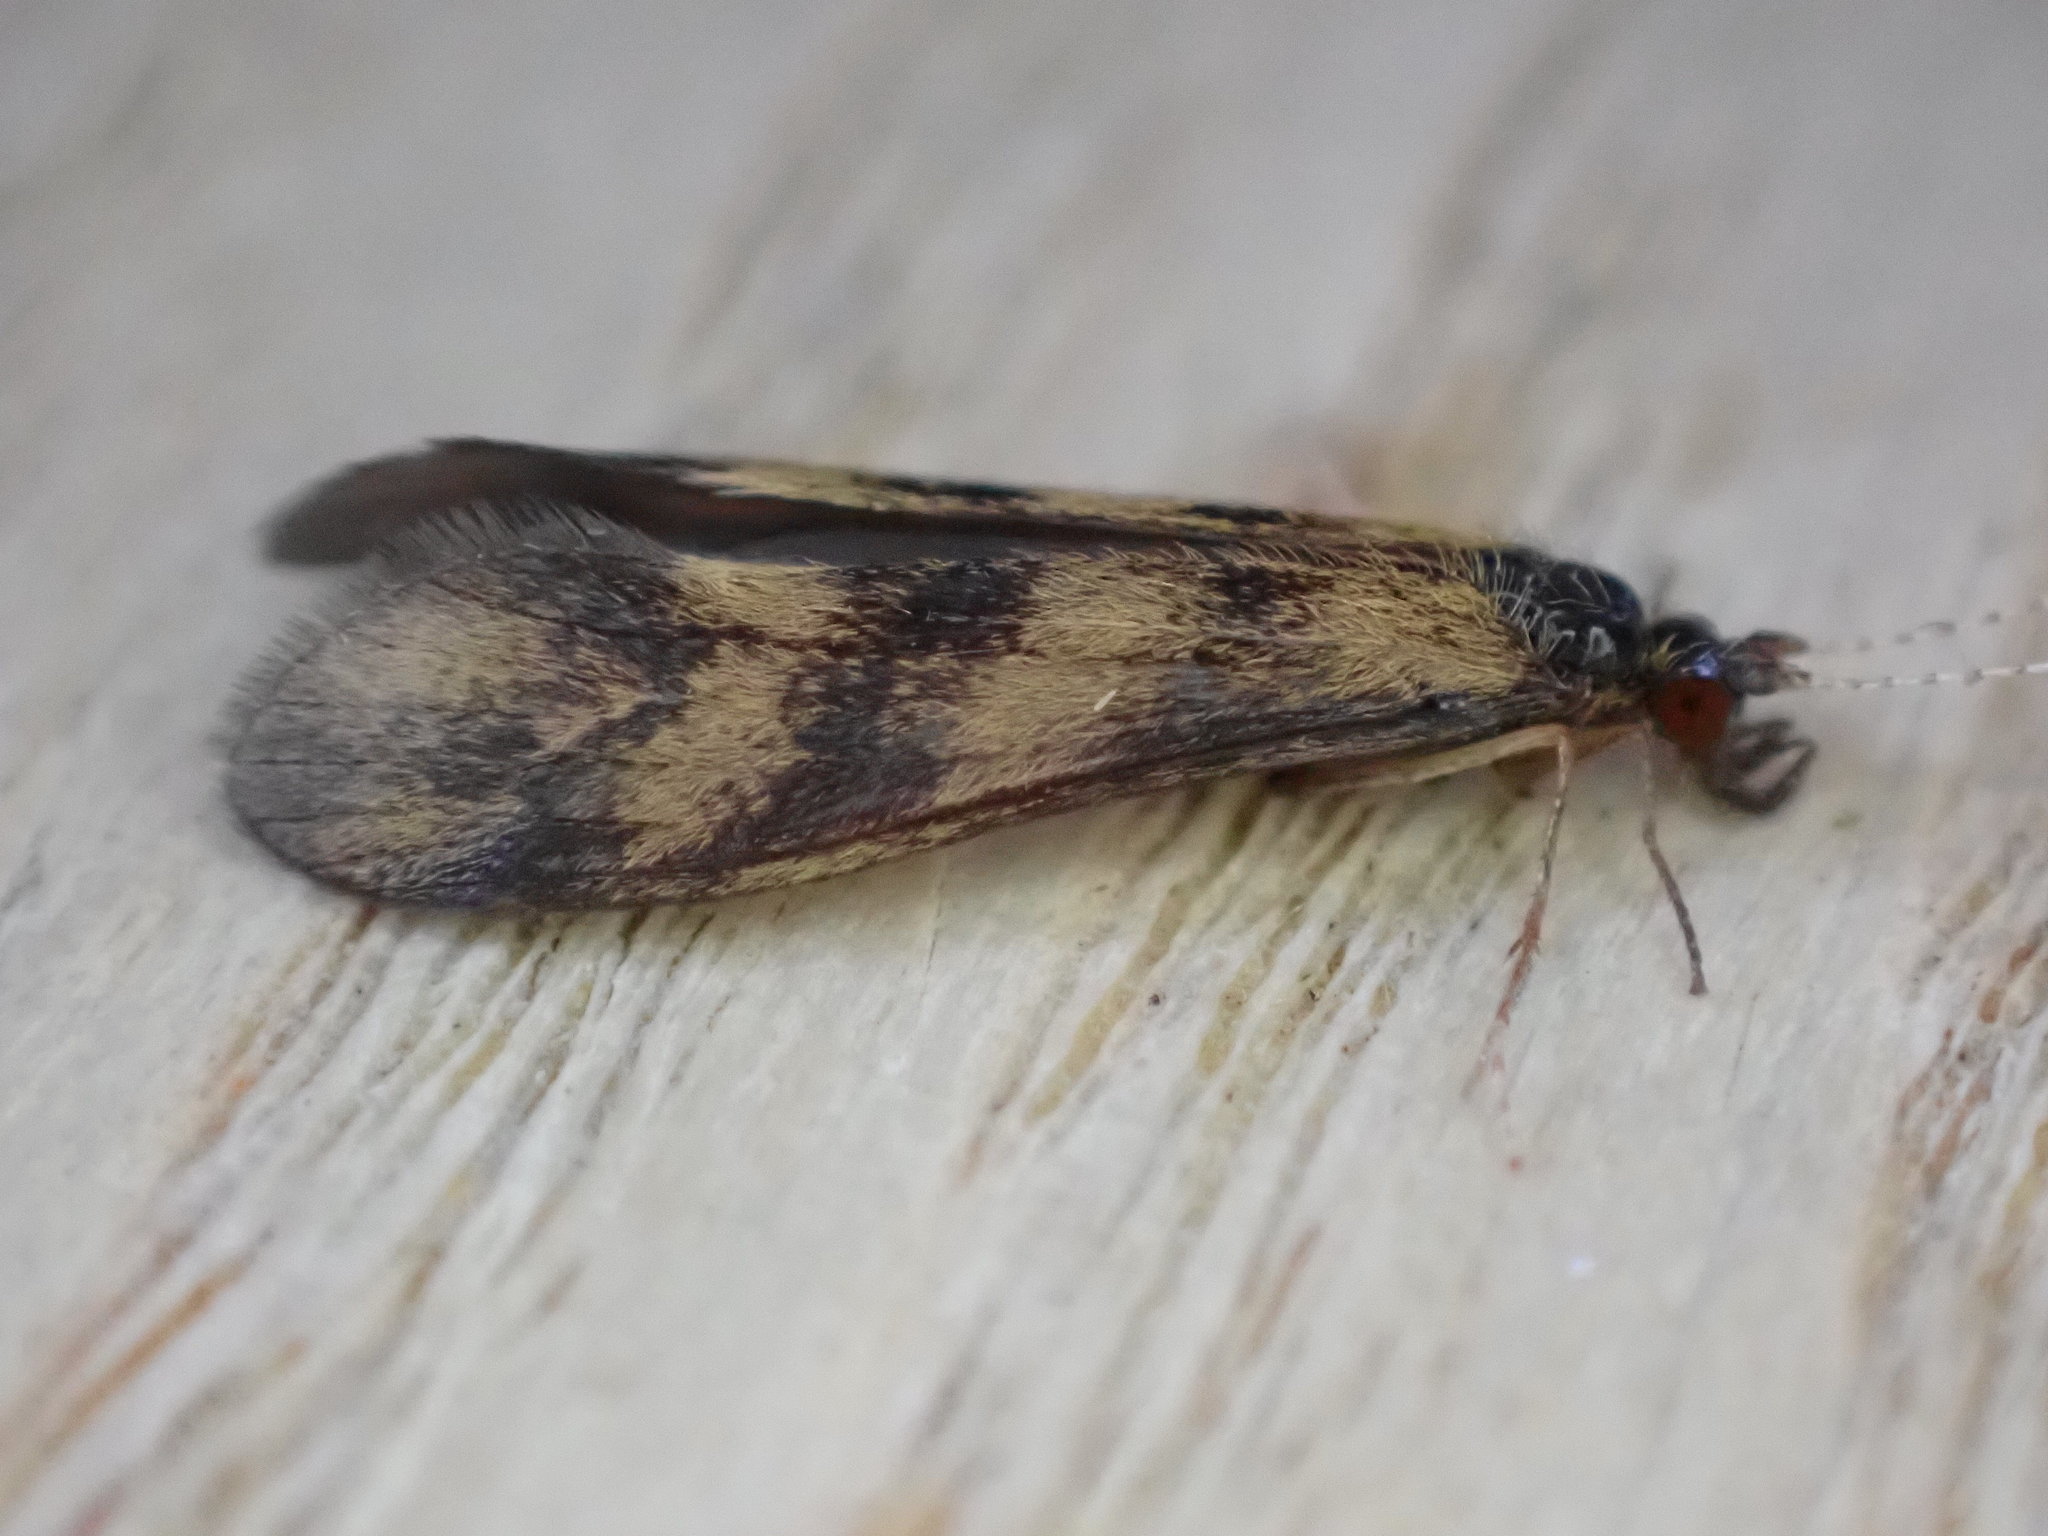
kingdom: Animalia
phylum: Arthropoda
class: Insecta
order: Trichoptera
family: Leptoceridae
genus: Mystacides
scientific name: Mystacides longicornis
